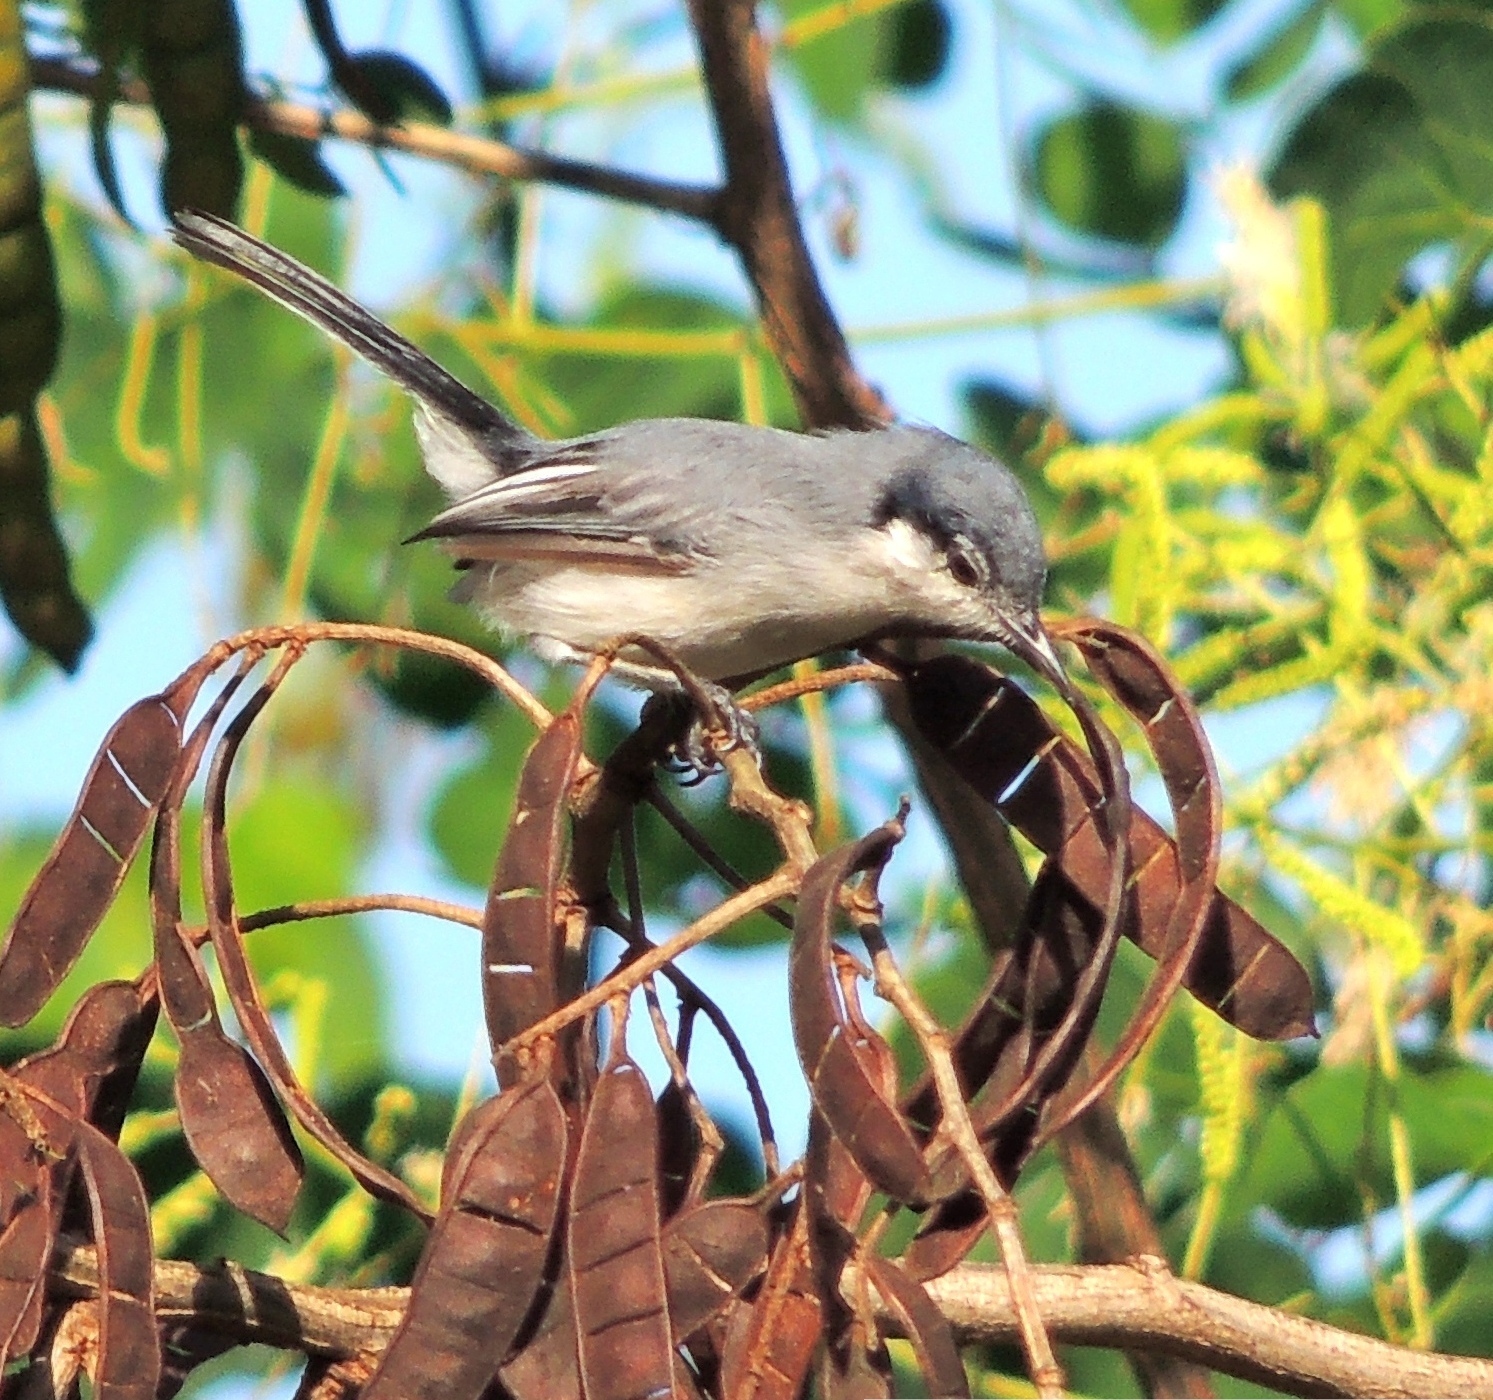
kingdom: Animalia
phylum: Chordata
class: Aves
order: Passeriformes
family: Polioptilidae
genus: Polioptila
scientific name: Polioptila plumbea
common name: Tropical gnatcatcher
